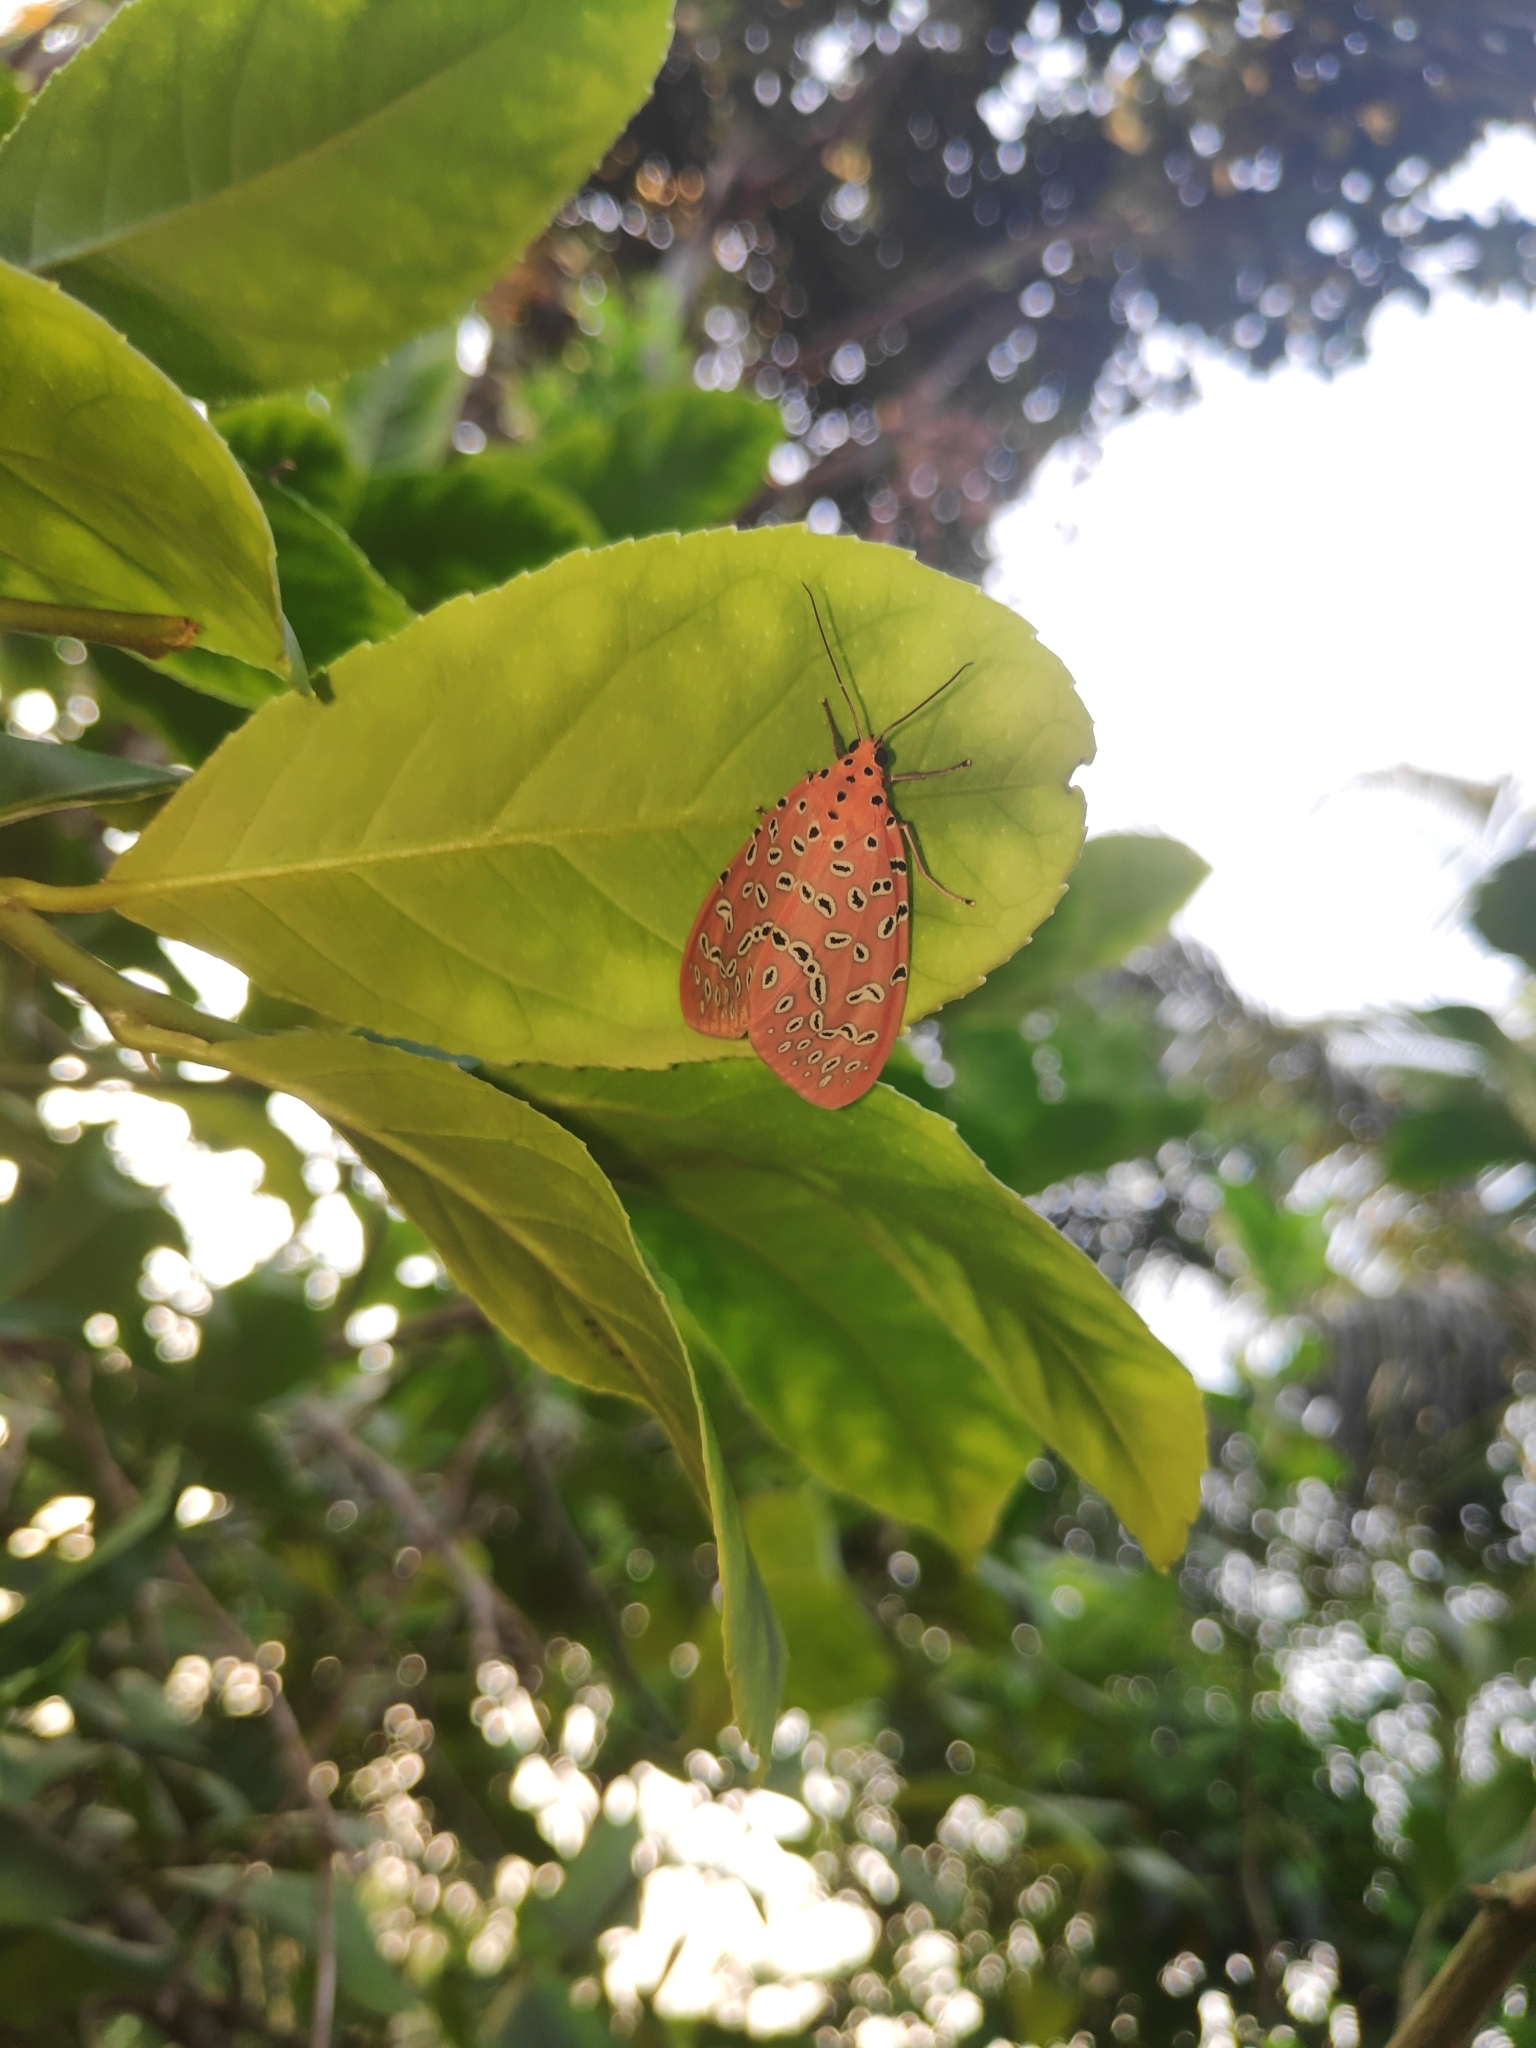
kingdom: Animalia
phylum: Arthropoda
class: Insecta
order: Lepidoptera
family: Erebidae
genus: Mangina
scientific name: Mangina argus
